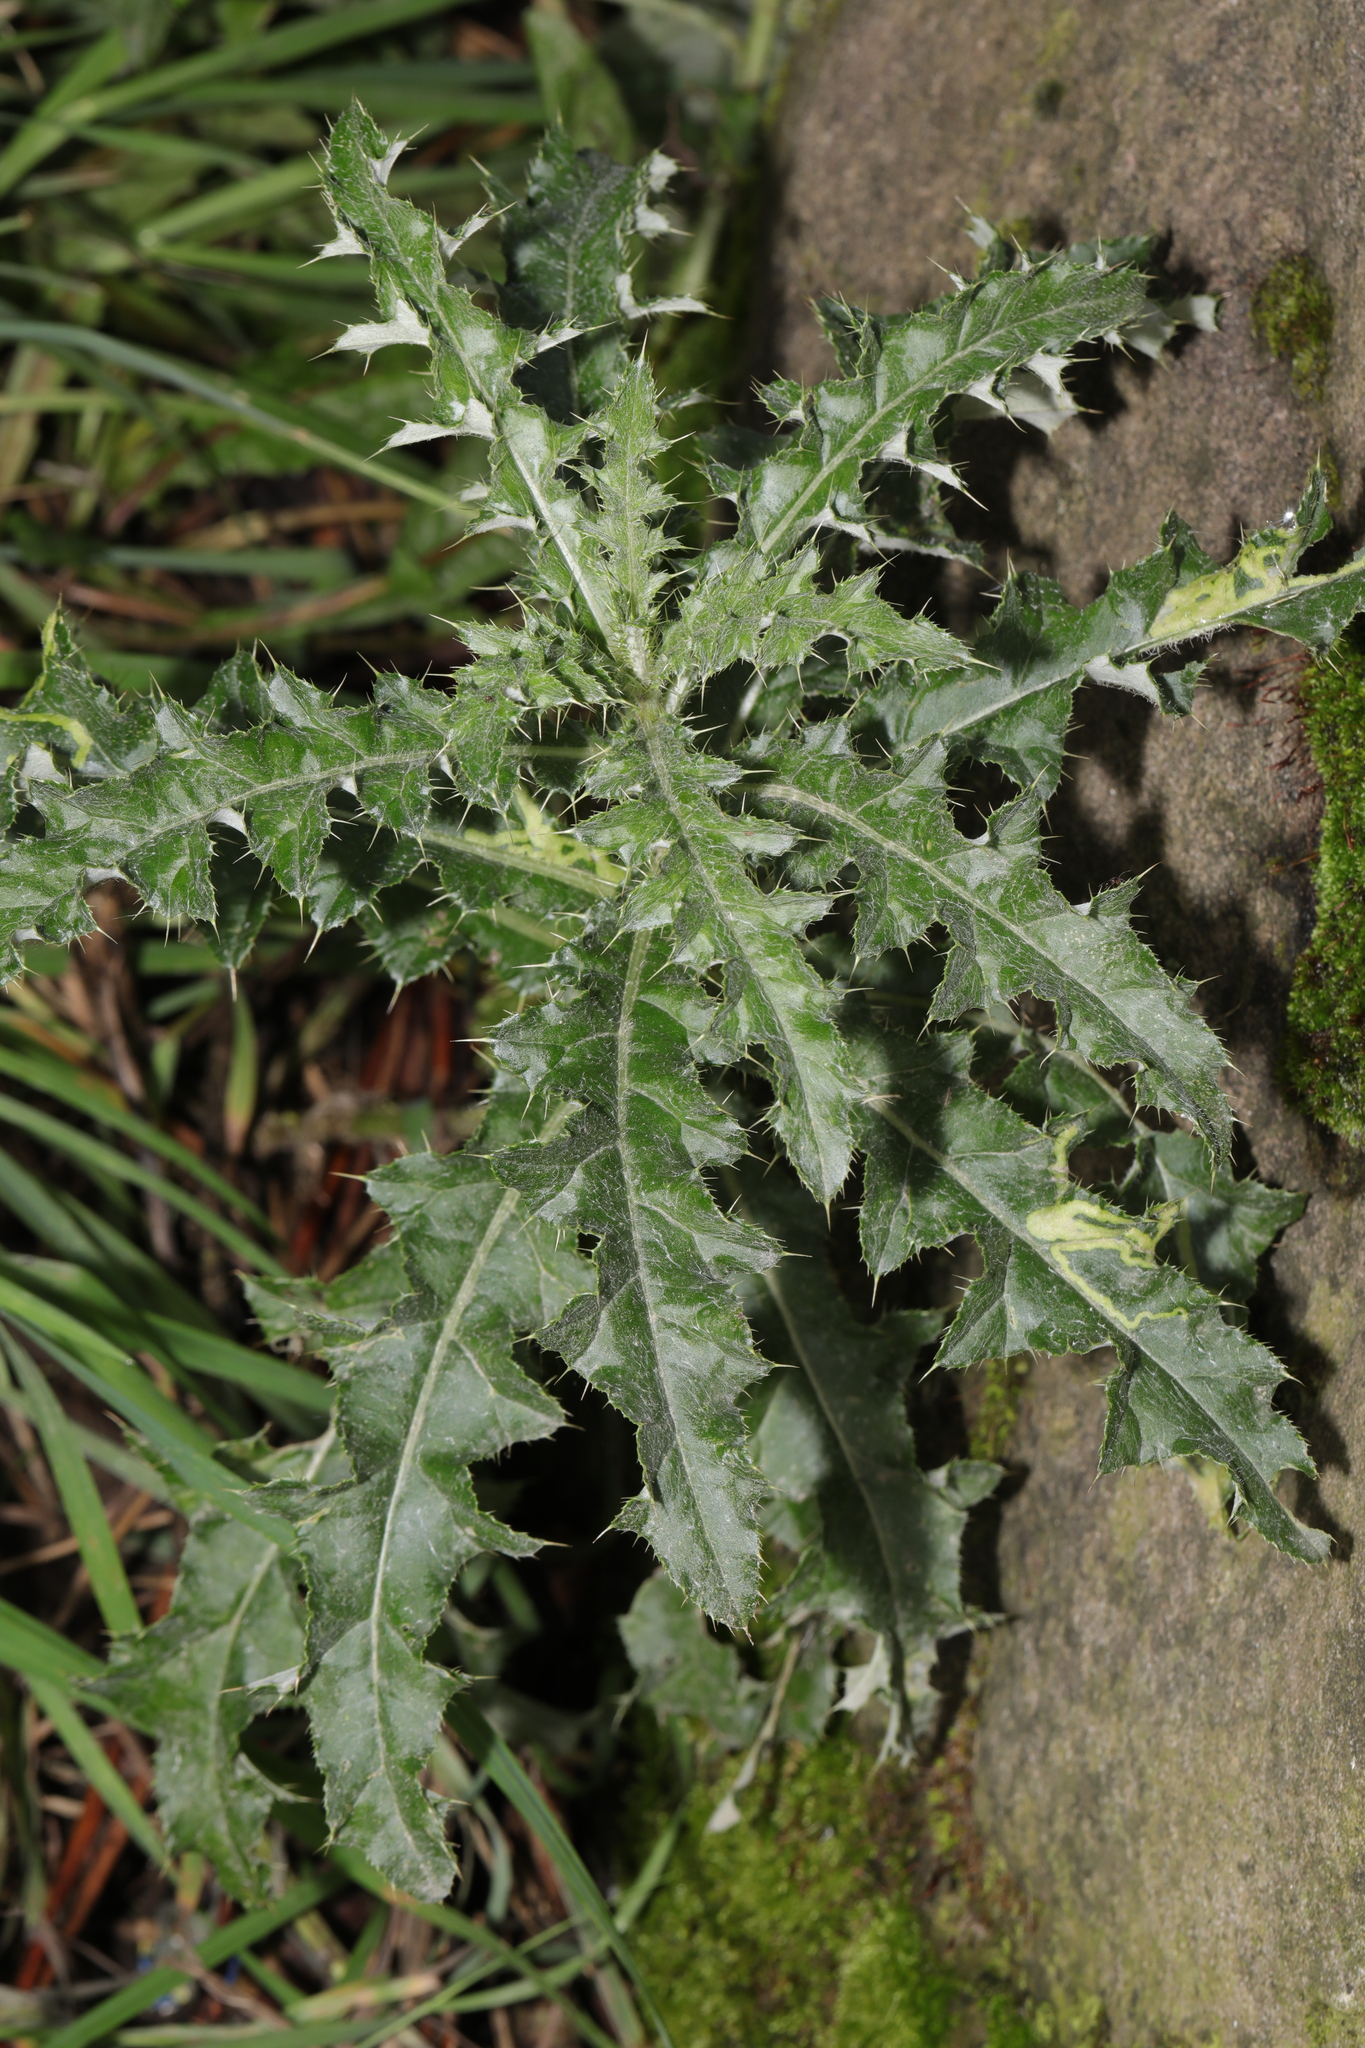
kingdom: Plantae
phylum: Tracheophyta
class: Magnoliopsida
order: Asterales
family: Asteraceae
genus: Cirsium
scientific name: Cirsium arvense
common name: Creeping thistle
